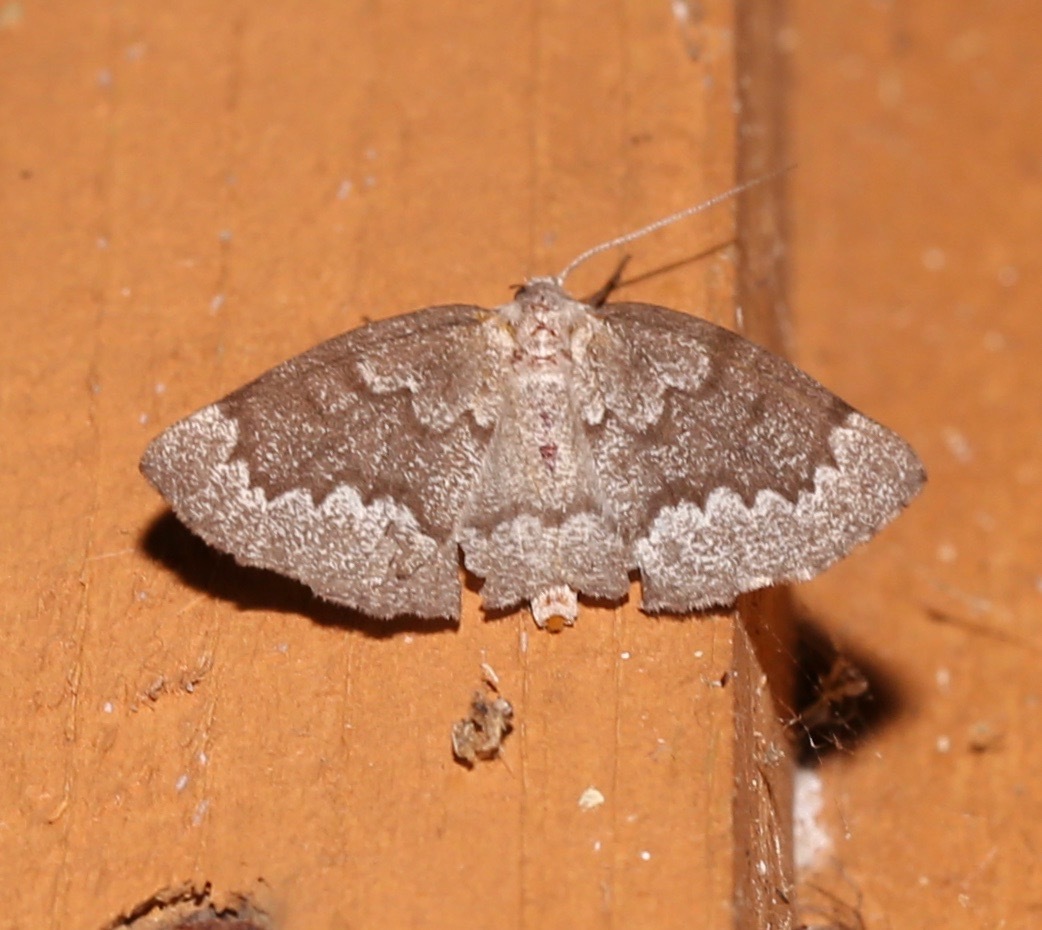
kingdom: Animalia
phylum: Arthropoda
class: Insecta
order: Lepidoptera
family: Geometridae
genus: Nepytia
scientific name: Nepytia semiclusaria
